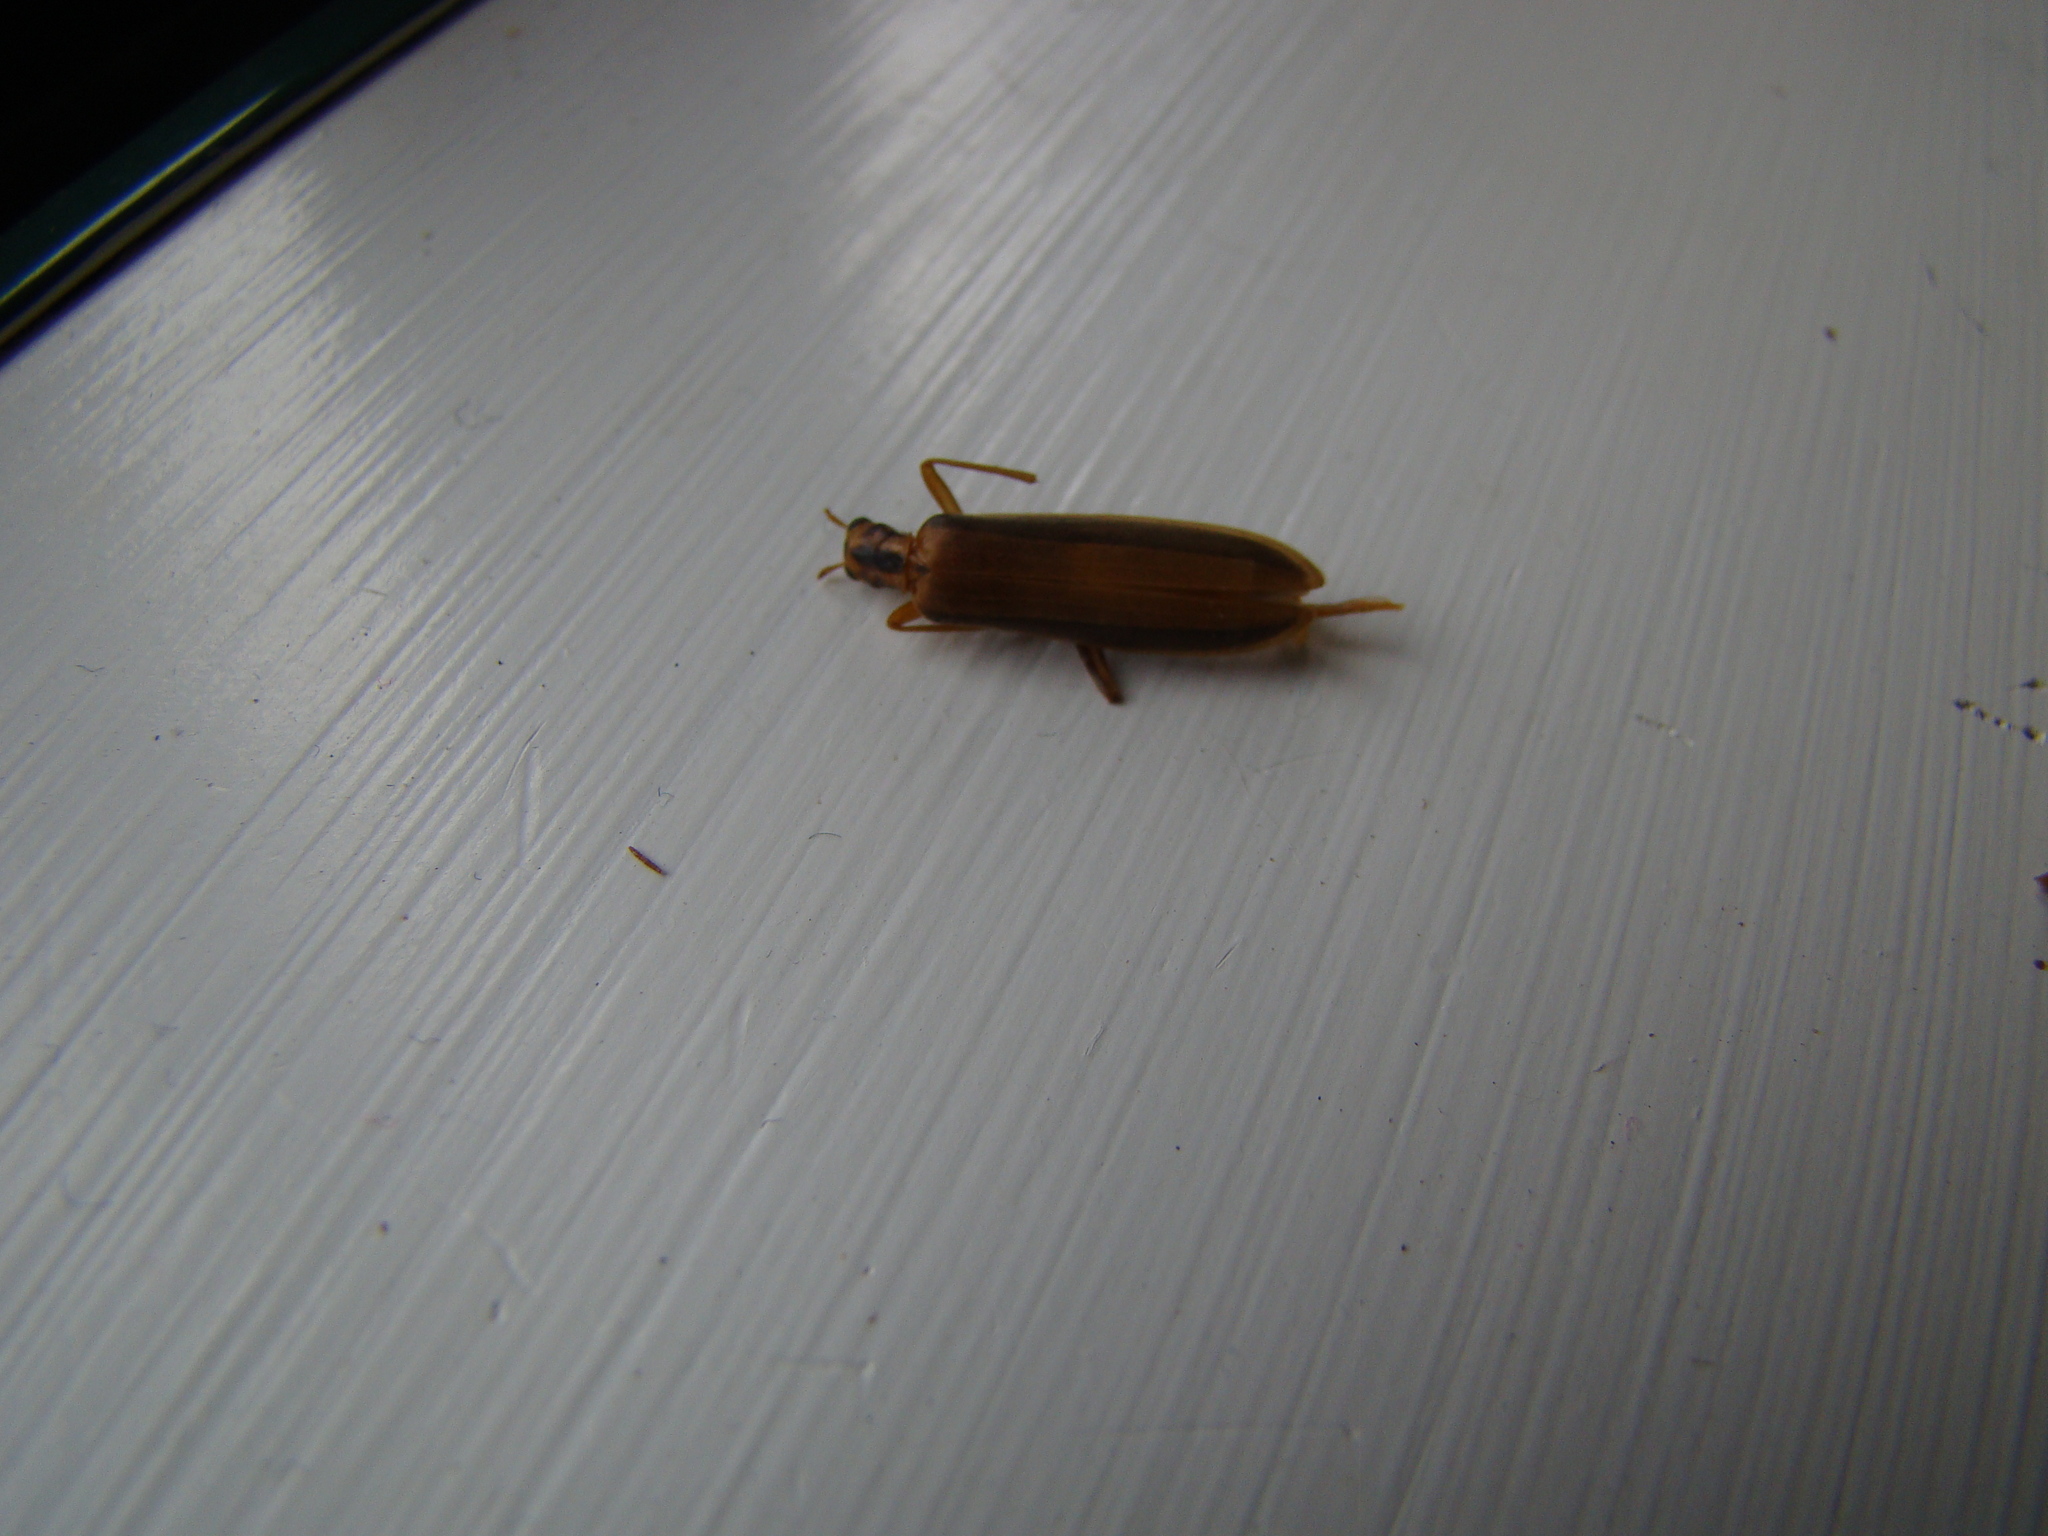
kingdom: Animalia
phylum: Arthropoda
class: Insecta
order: Coleoptera
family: Oedemeridae
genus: Thelyphassa
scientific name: Thelyphassa
